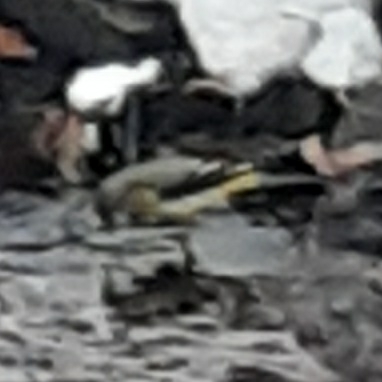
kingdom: Animalia
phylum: Chordata
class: Aves
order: Passeriformes
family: Motacillidae
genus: Motacilla
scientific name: Motacilla cinerea
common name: Grey wagtail
